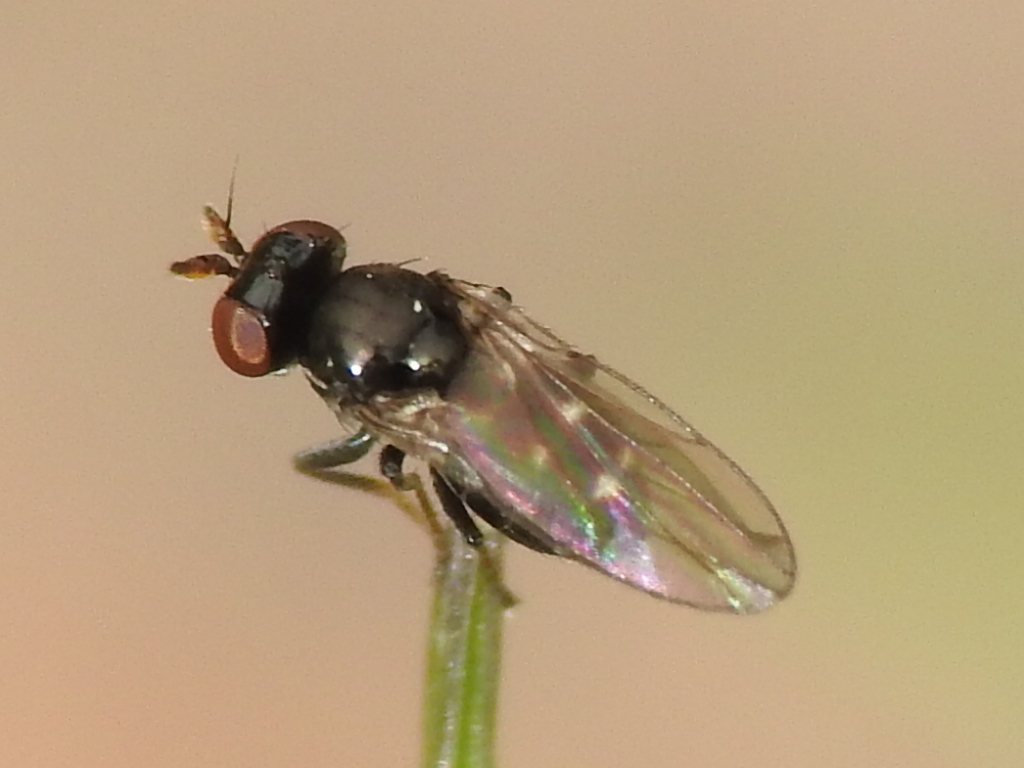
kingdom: Animalia
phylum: Arthropoda
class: Insecta
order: Diptera
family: Ephydridae
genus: Hyadina
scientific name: Hyadina albovenosa
